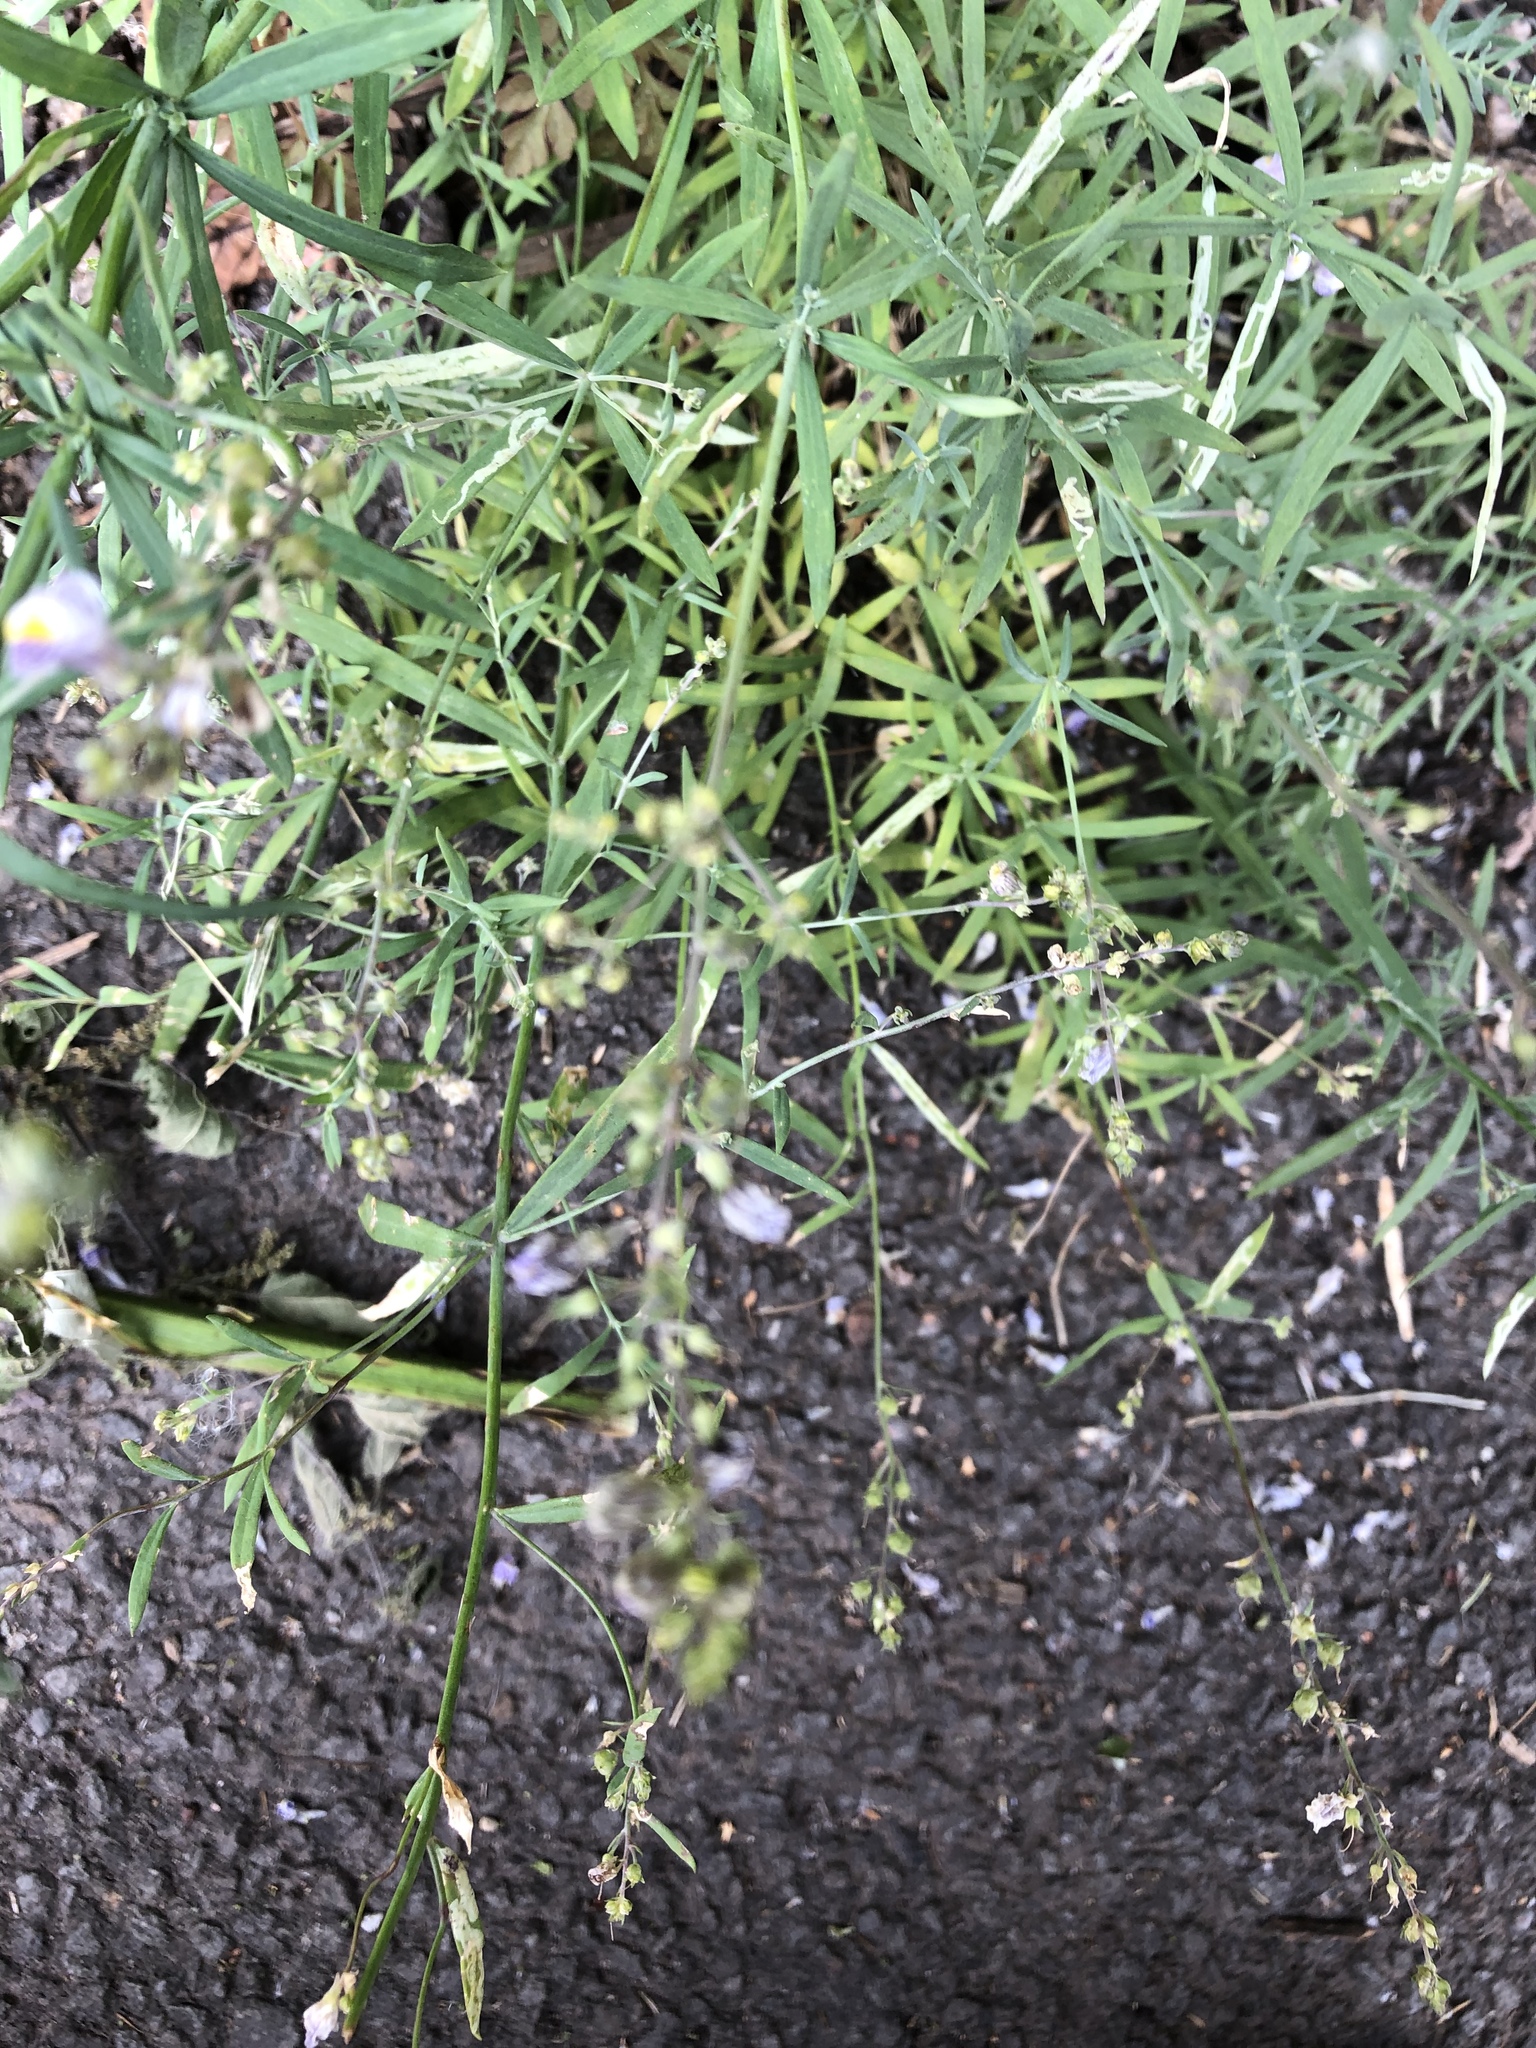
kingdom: Plantae
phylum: Tracheophyta
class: Magnoliopsida
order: Lamiales
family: Plantaginaceae
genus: Linaria
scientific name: Linaria repens
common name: Pale toadflax
